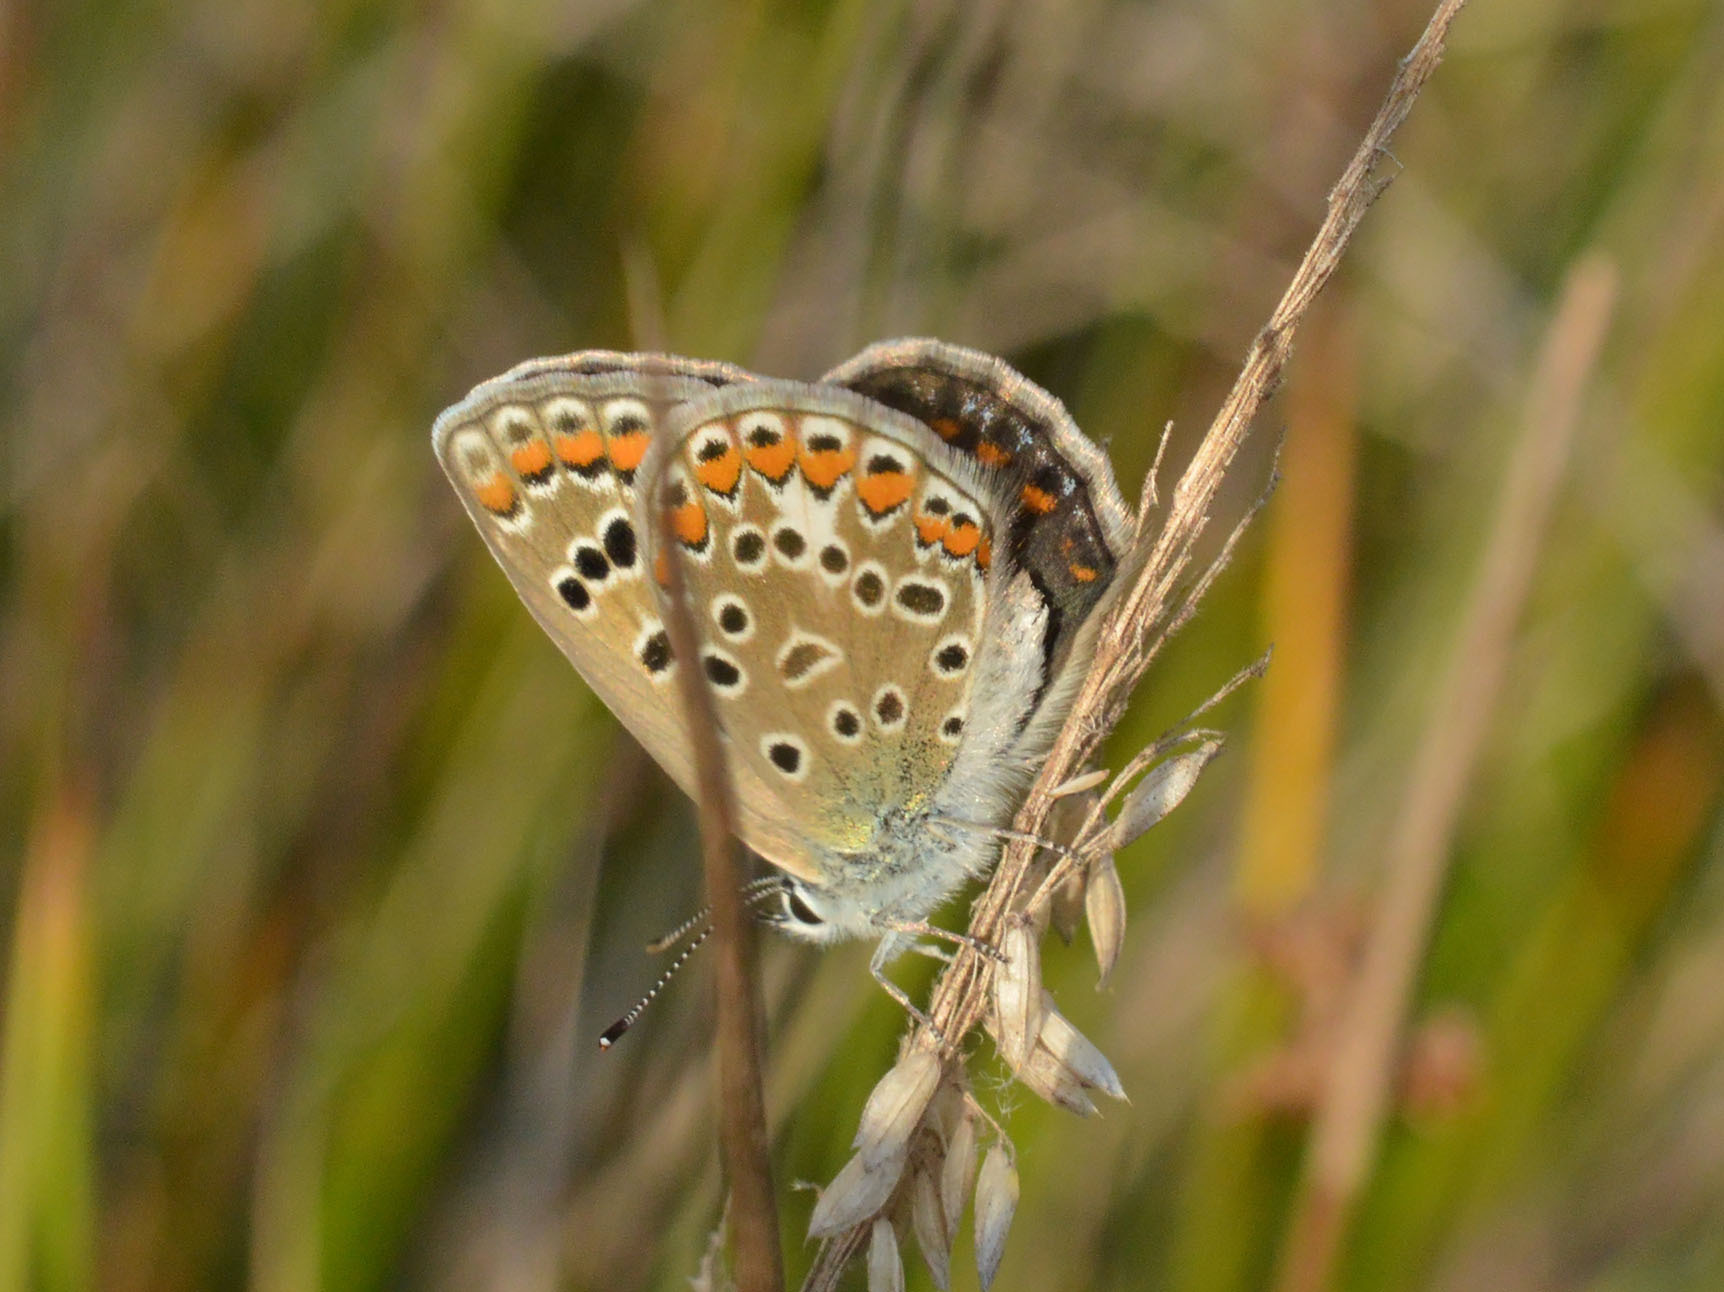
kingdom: Animalia
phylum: Arthropoda
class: Insecta
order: Lepidoptera
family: Lycaenidae
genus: Polyommatus
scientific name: Polyommatus icarus
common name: Common blue
